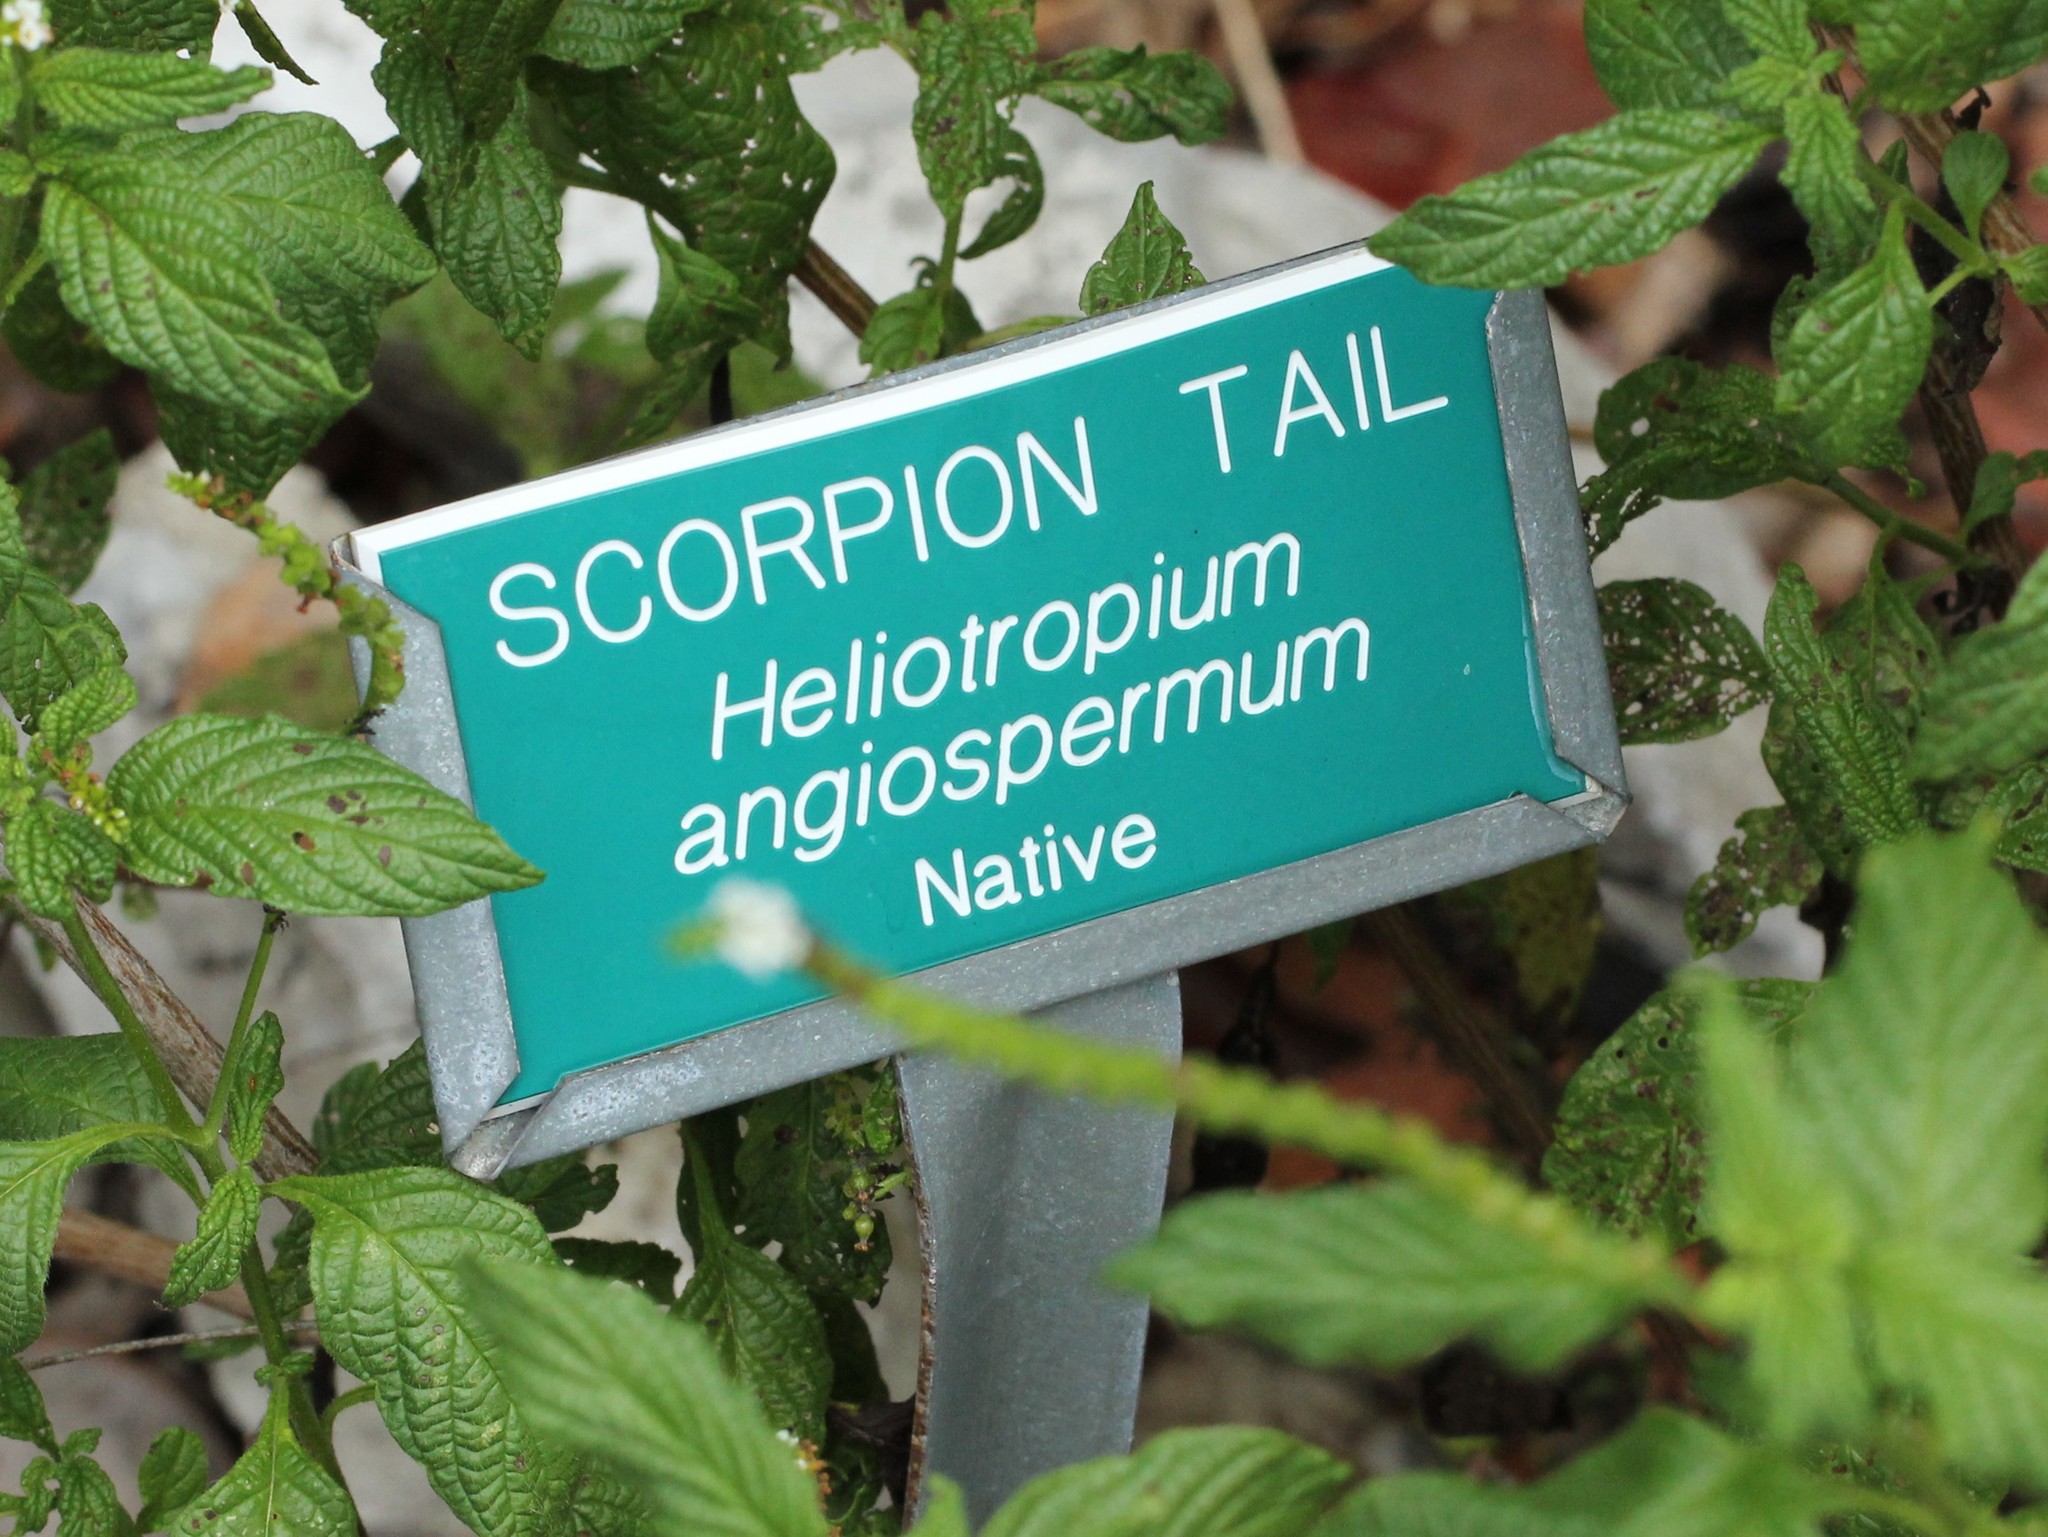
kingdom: Plantae
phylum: Tracheophyta
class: Magnoliopsida
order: Boraginales
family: Heliotropiaceae
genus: Heliotropium
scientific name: Heliotropium angiospermum
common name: Eye bright
